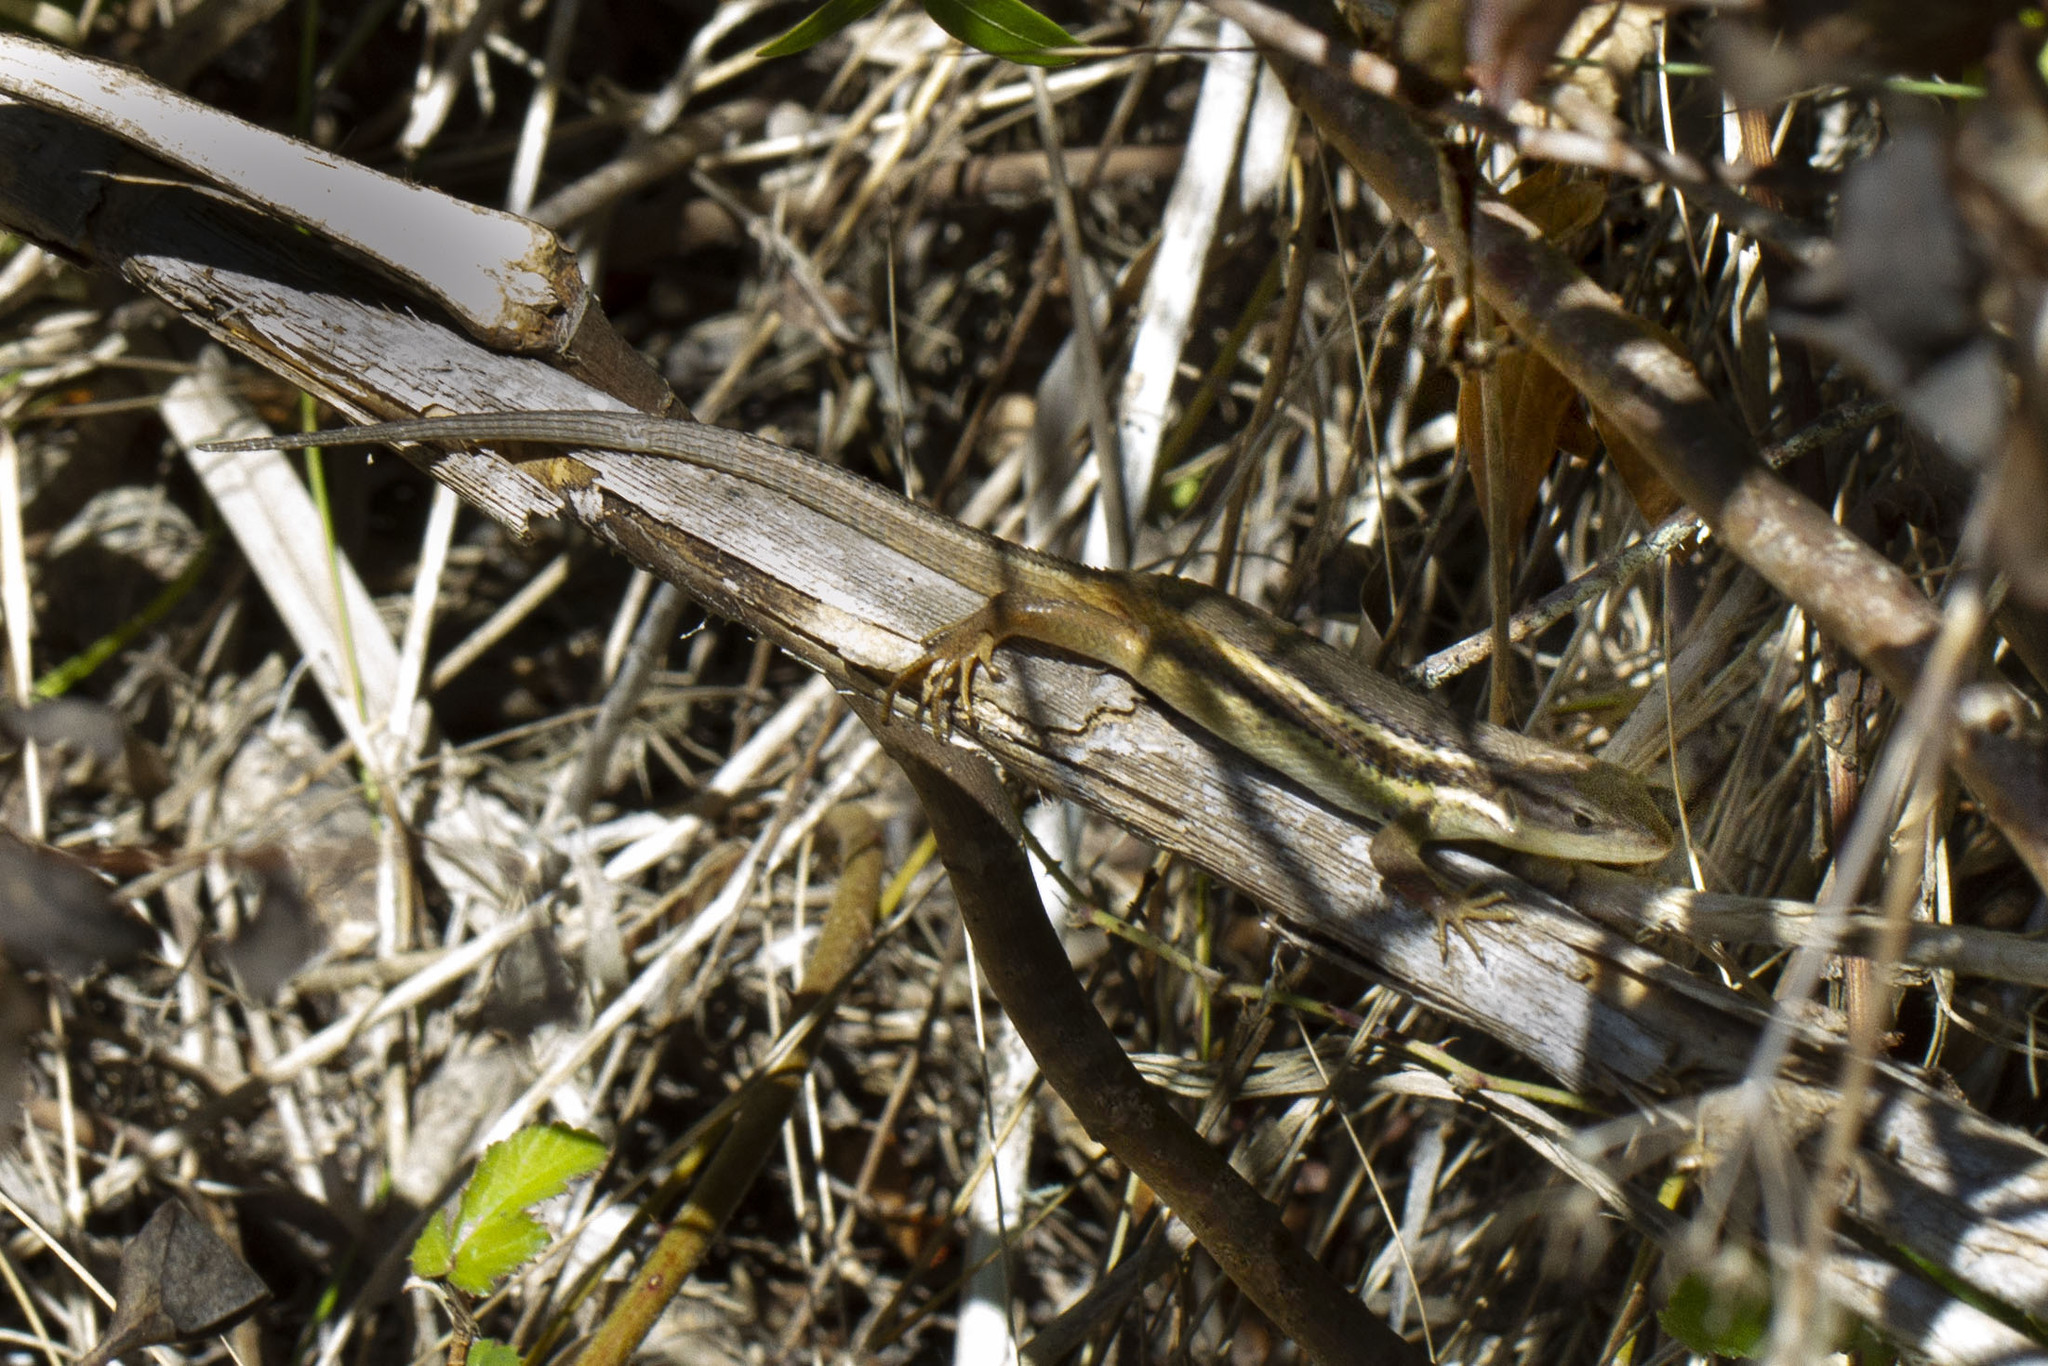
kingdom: Animalia
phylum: Chordata
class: Squamata
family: Lacertidae
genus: Psammodromus
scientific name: Psammodromus algirus
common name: Algerian psammodromus
